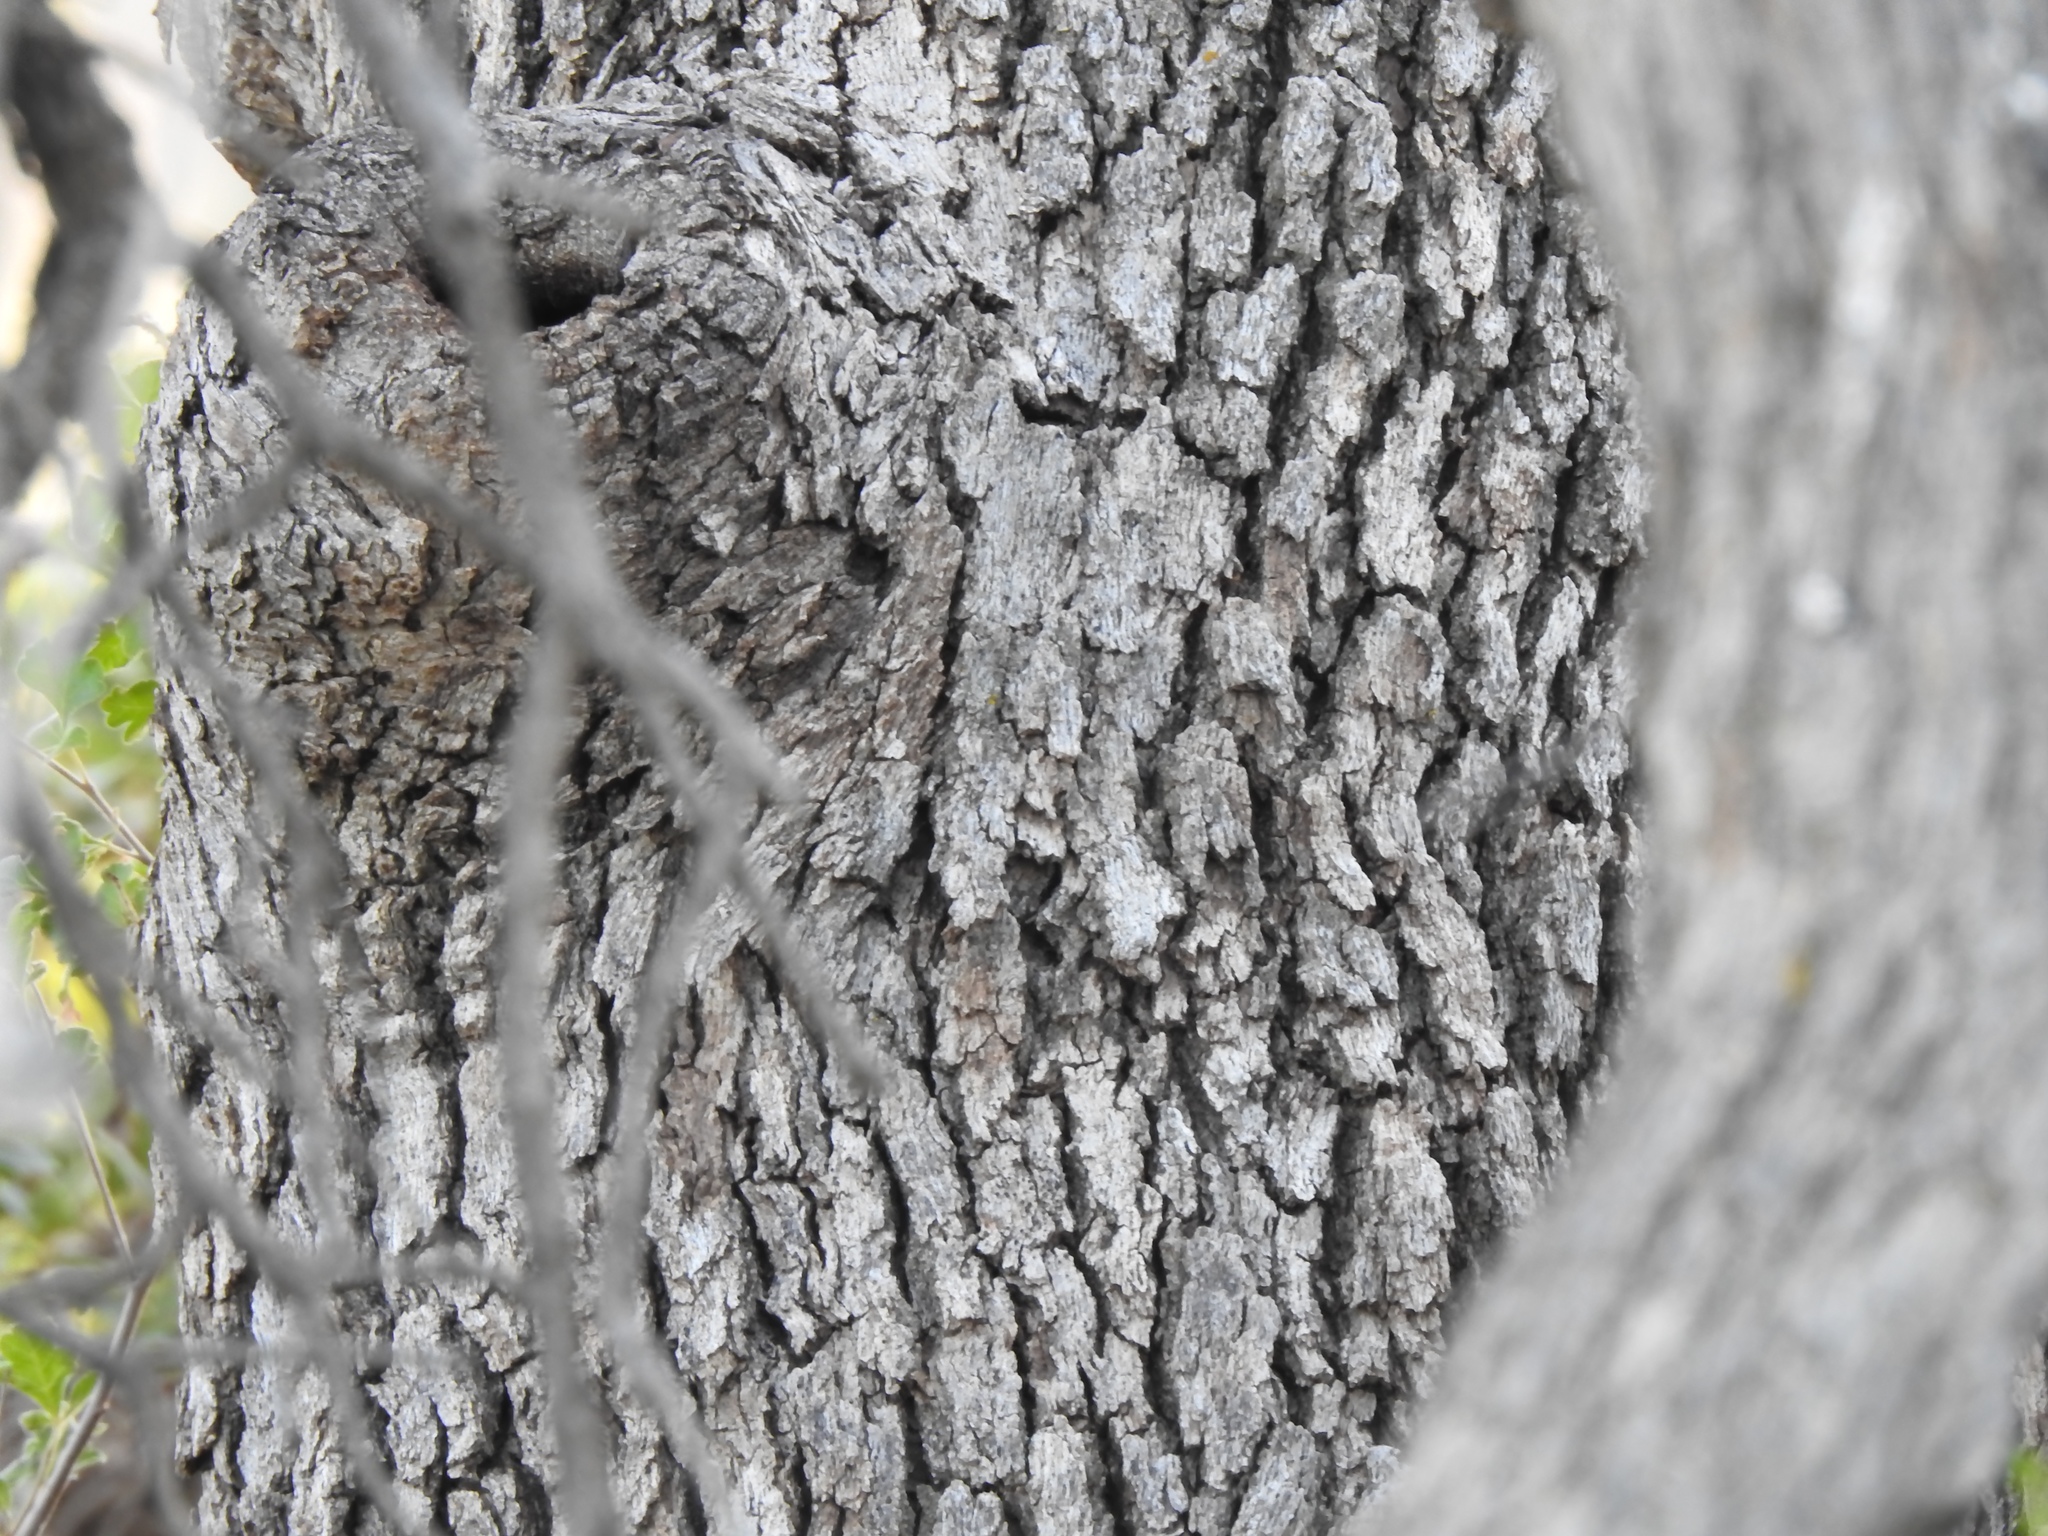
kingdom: Plantae
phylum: Tracheophyta
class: Magnoliopsida
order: Fagales
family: Fagaceae
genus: Quercus
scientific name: Quercus grisea
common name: Gray oak
